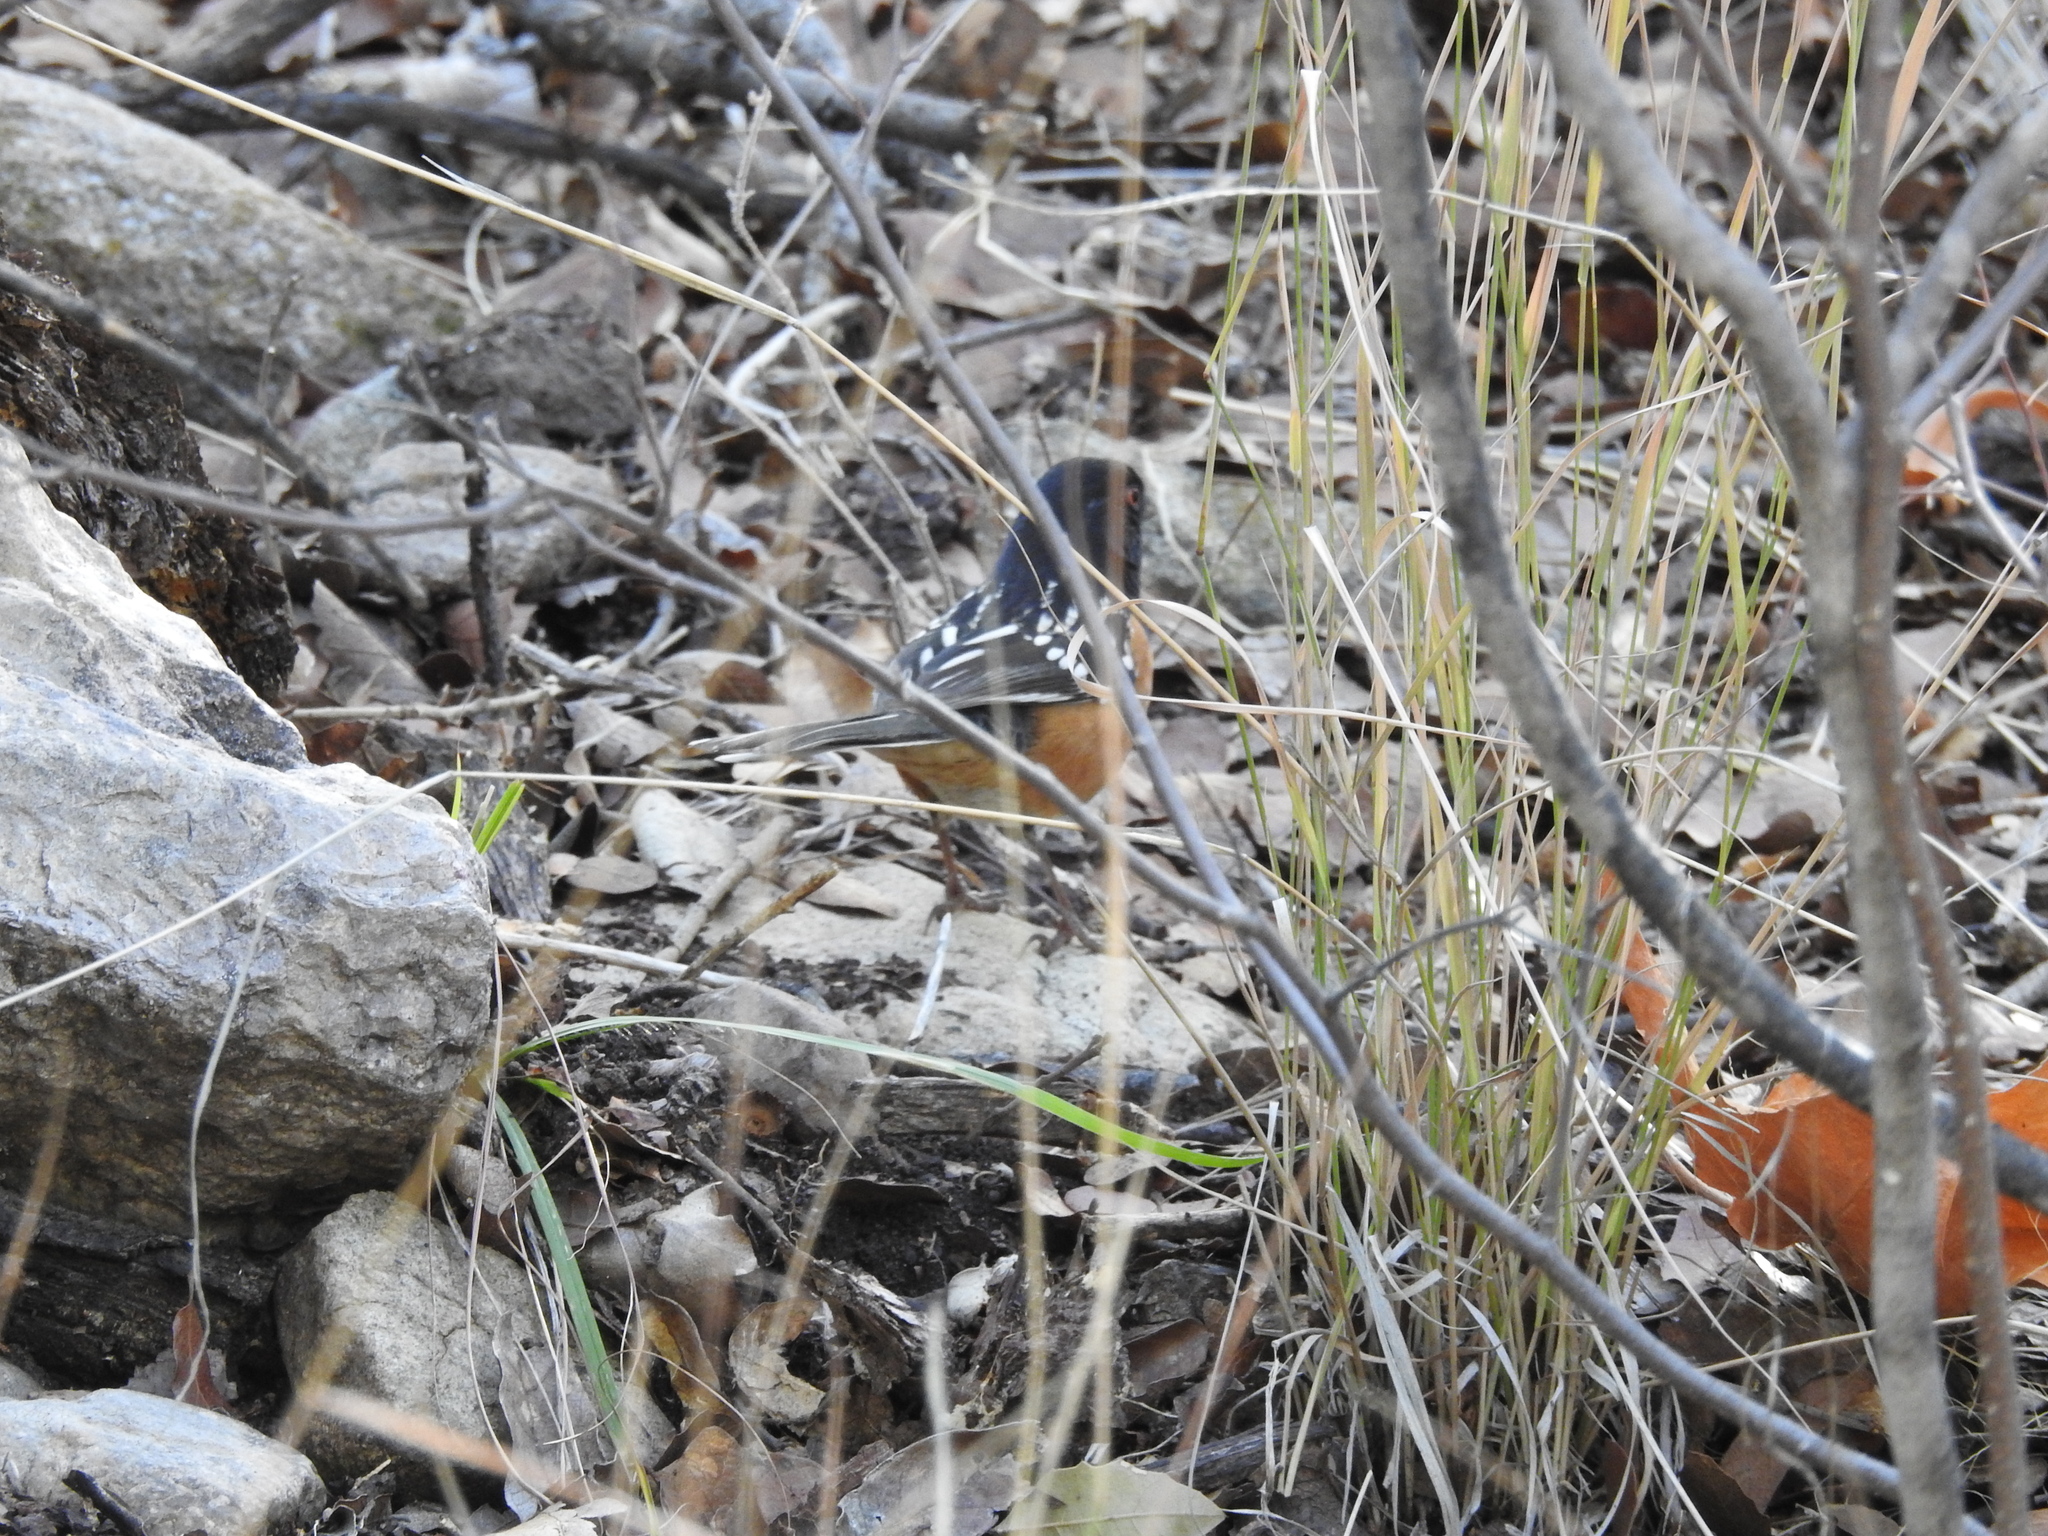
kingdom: Animalia
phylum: Chordata
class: Aves
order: Passeriformes
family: Passerellidae
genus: Pipilo
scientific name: Pipilo maculatus
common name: Spotted towhee
